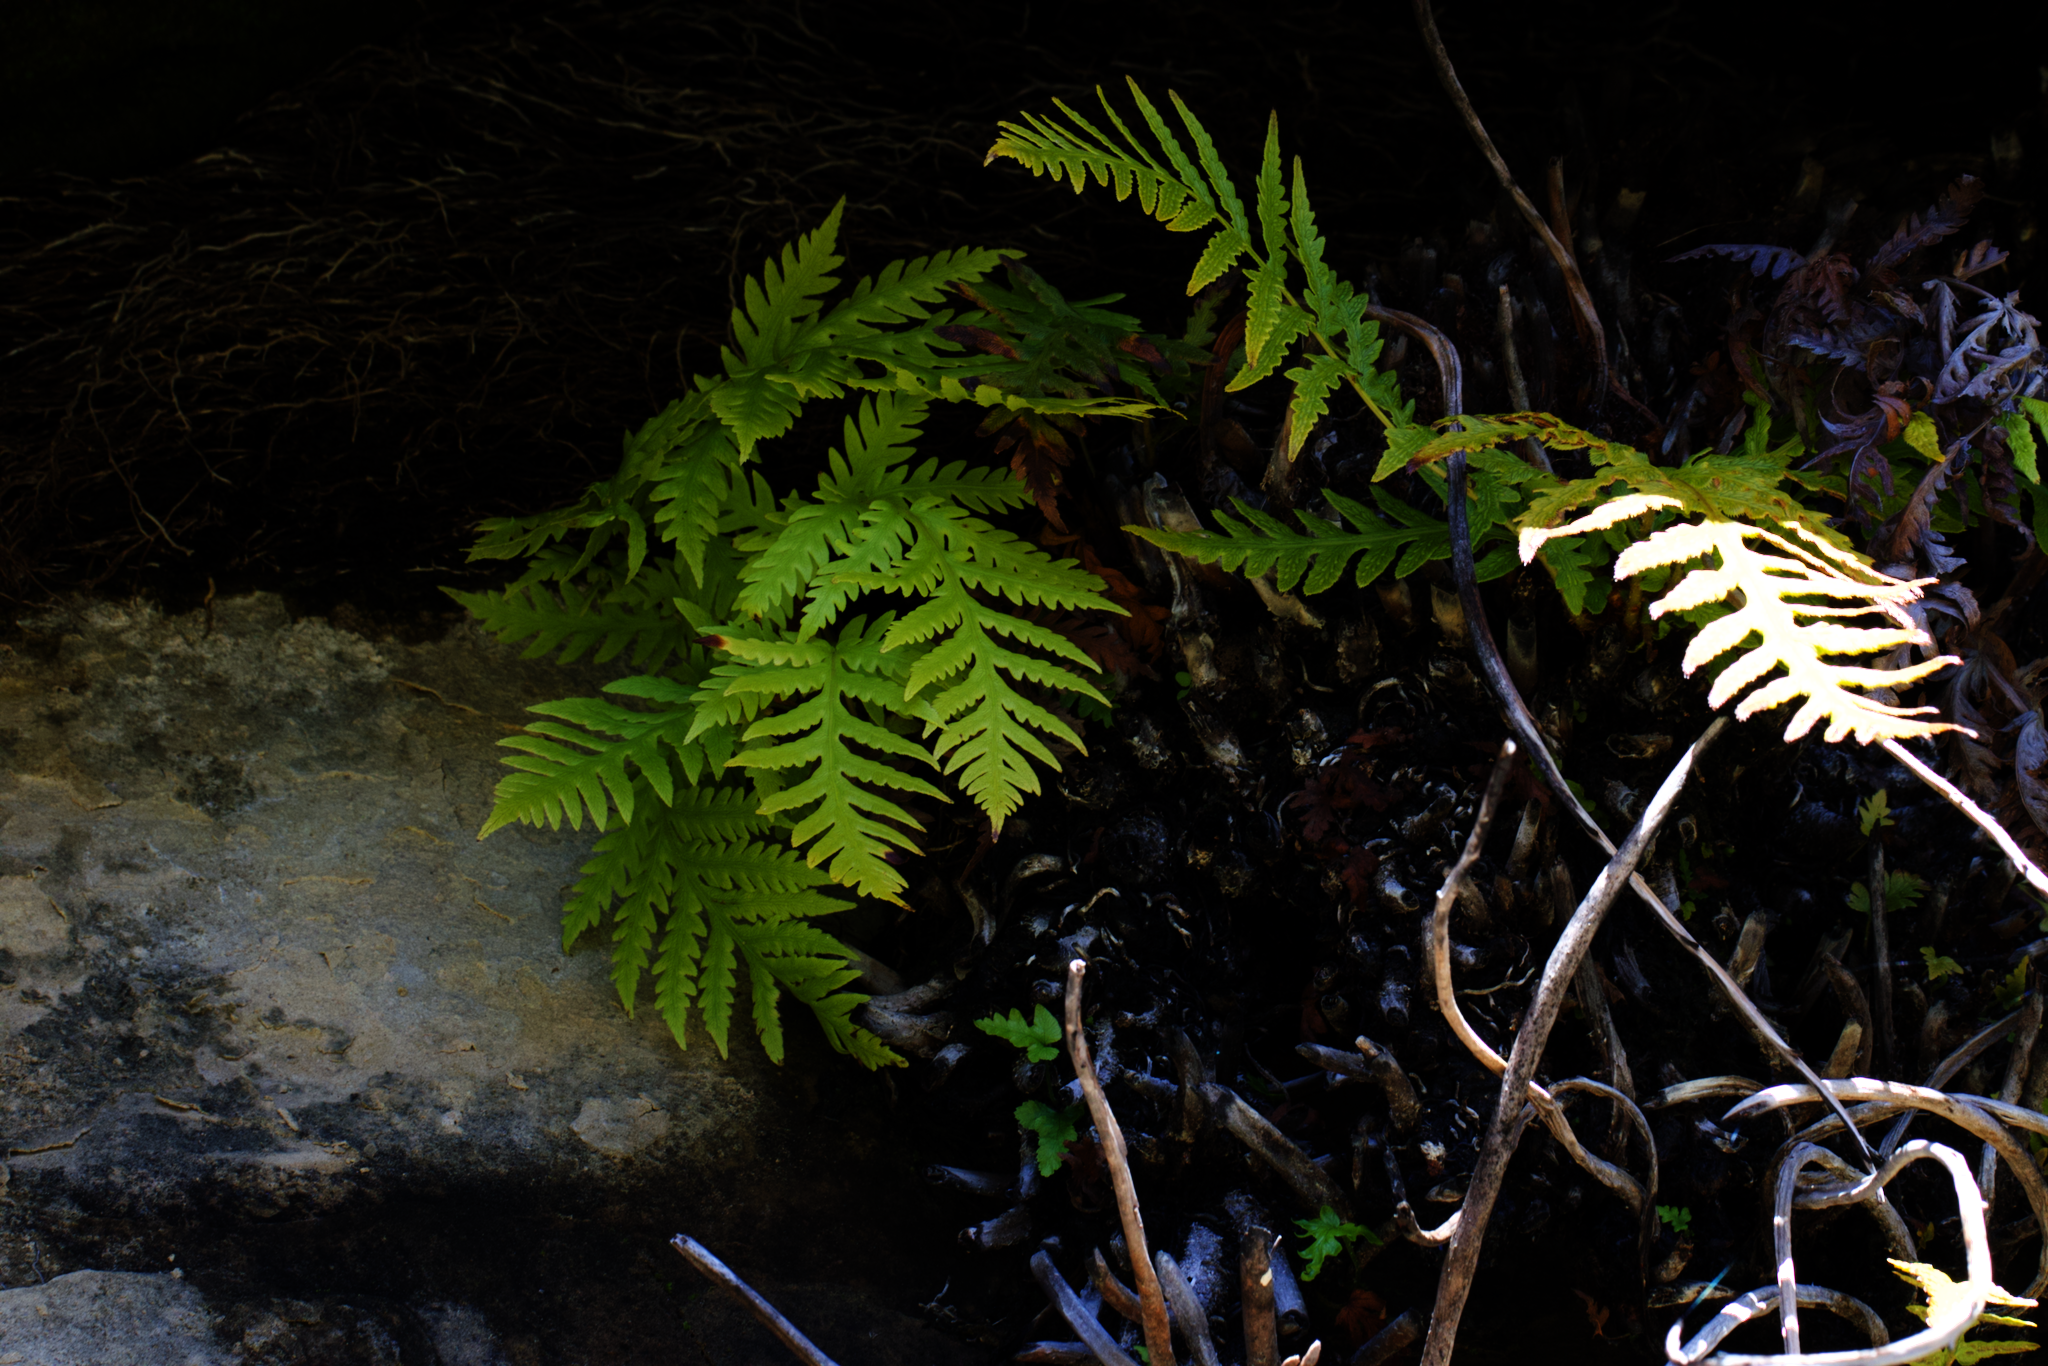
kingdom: Plantae
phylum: Tracheophyta
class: Polypodiopsida
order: Polypodiales
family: Blechnaceae
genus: Woodwardia
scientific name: Woodwardia fimbriata
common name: Giant chain fern
